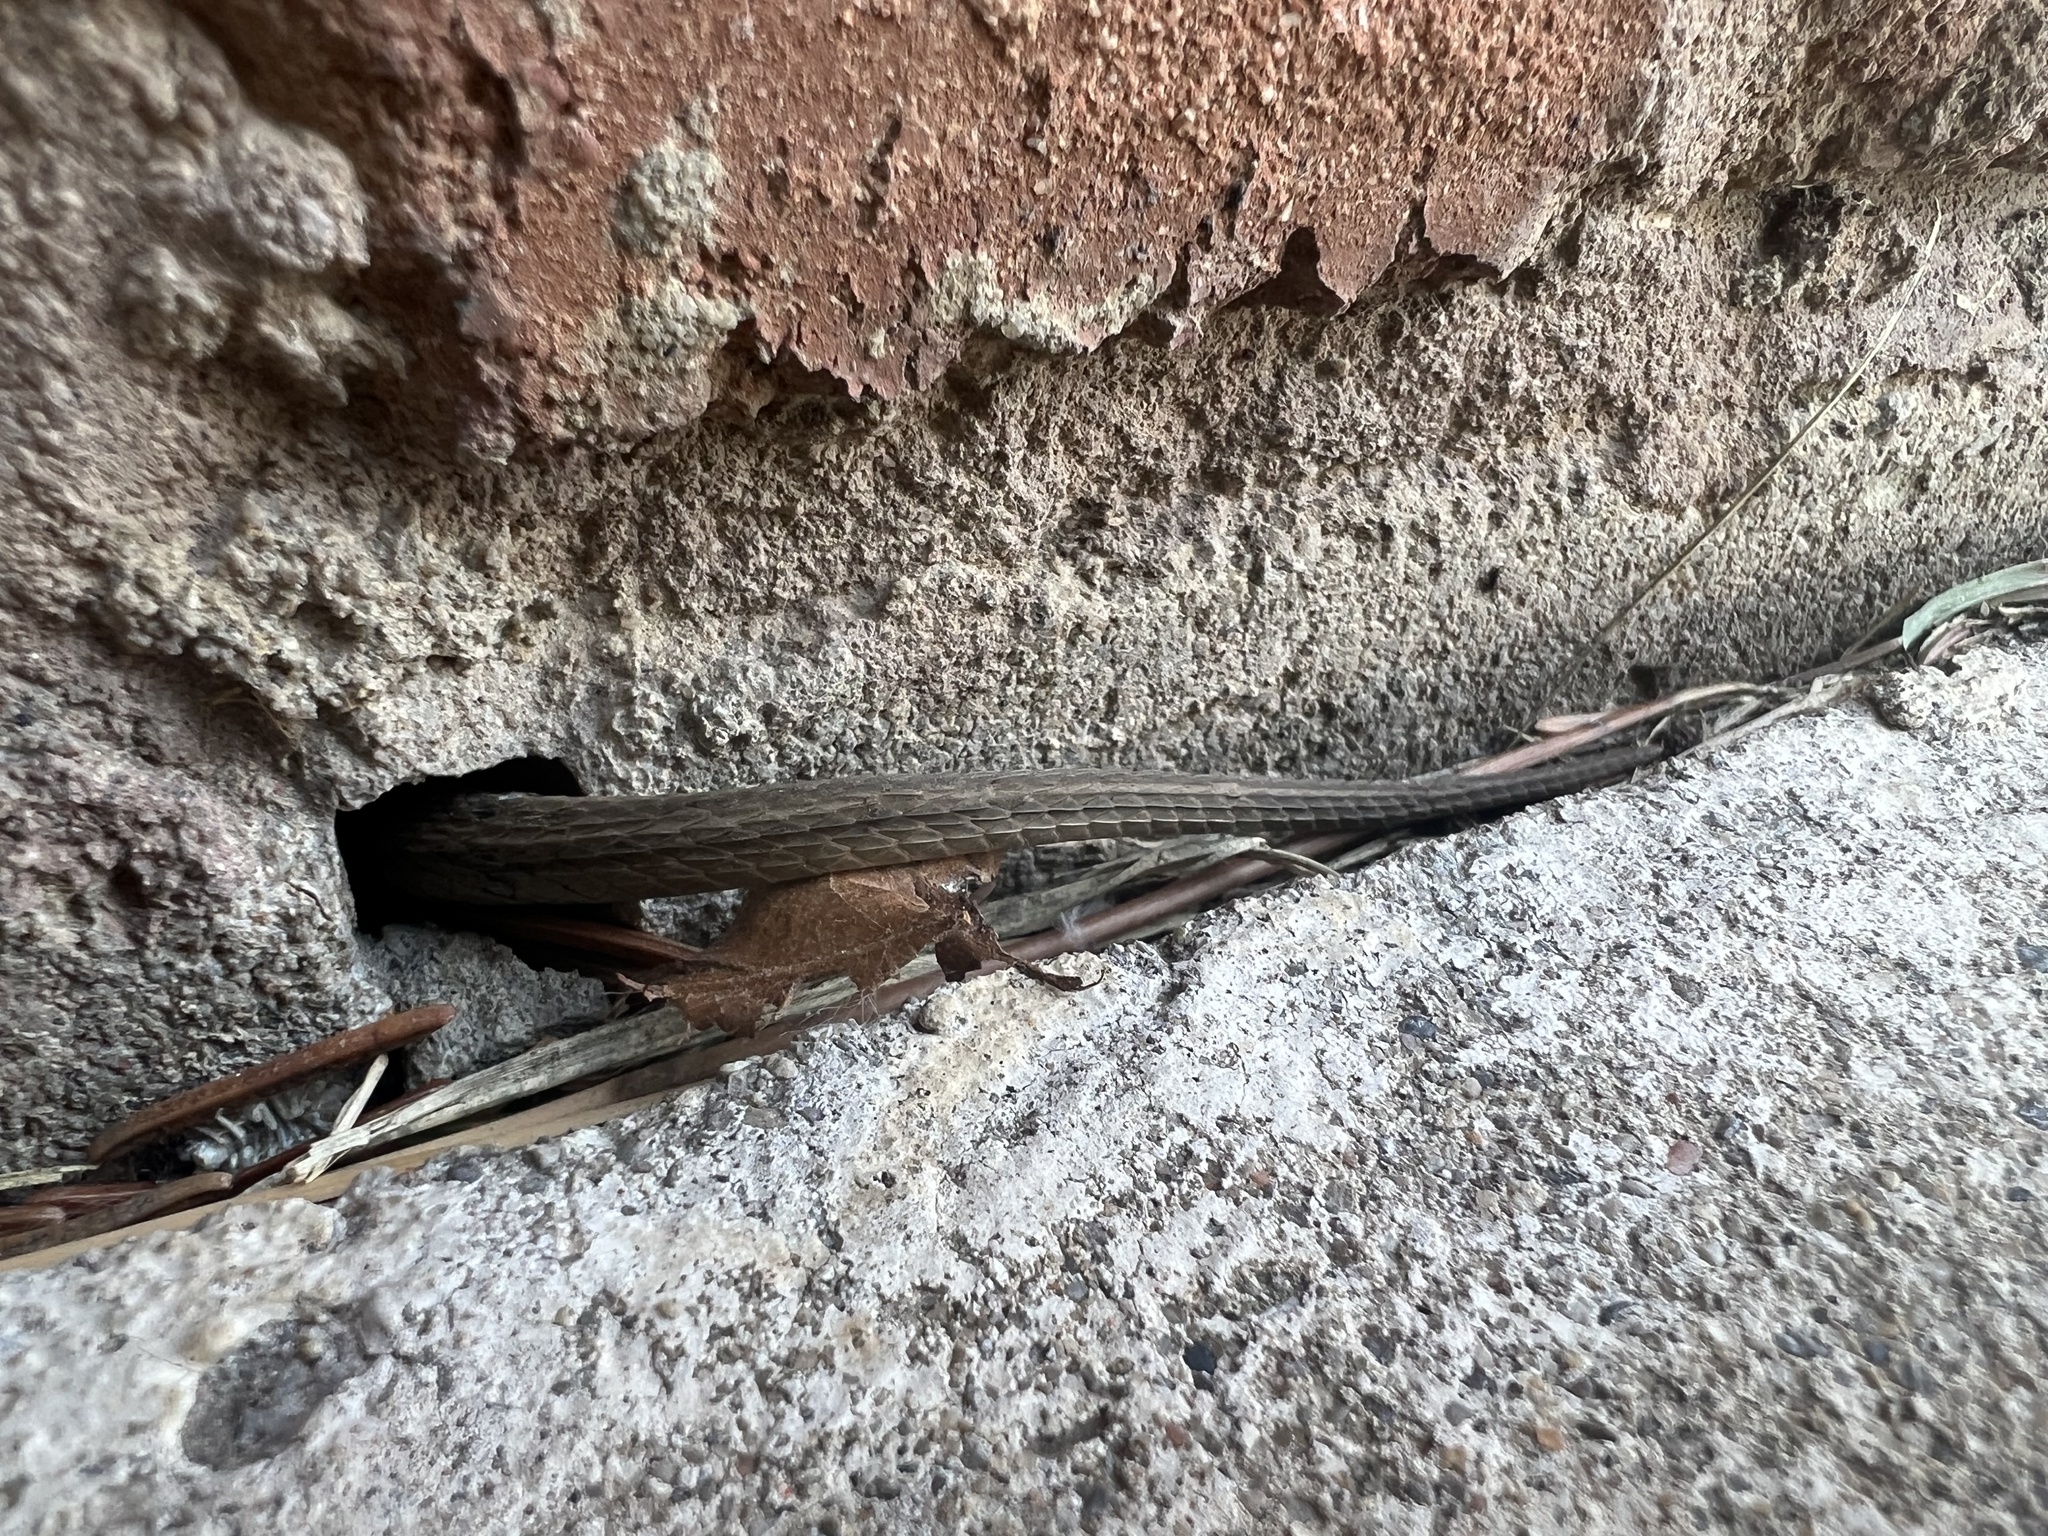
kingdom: Animalia
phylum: Chordata
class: Squamata
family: Colubridae
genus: Storeria
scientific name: Storeria dekayi
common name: (dekay’s) brown snake
